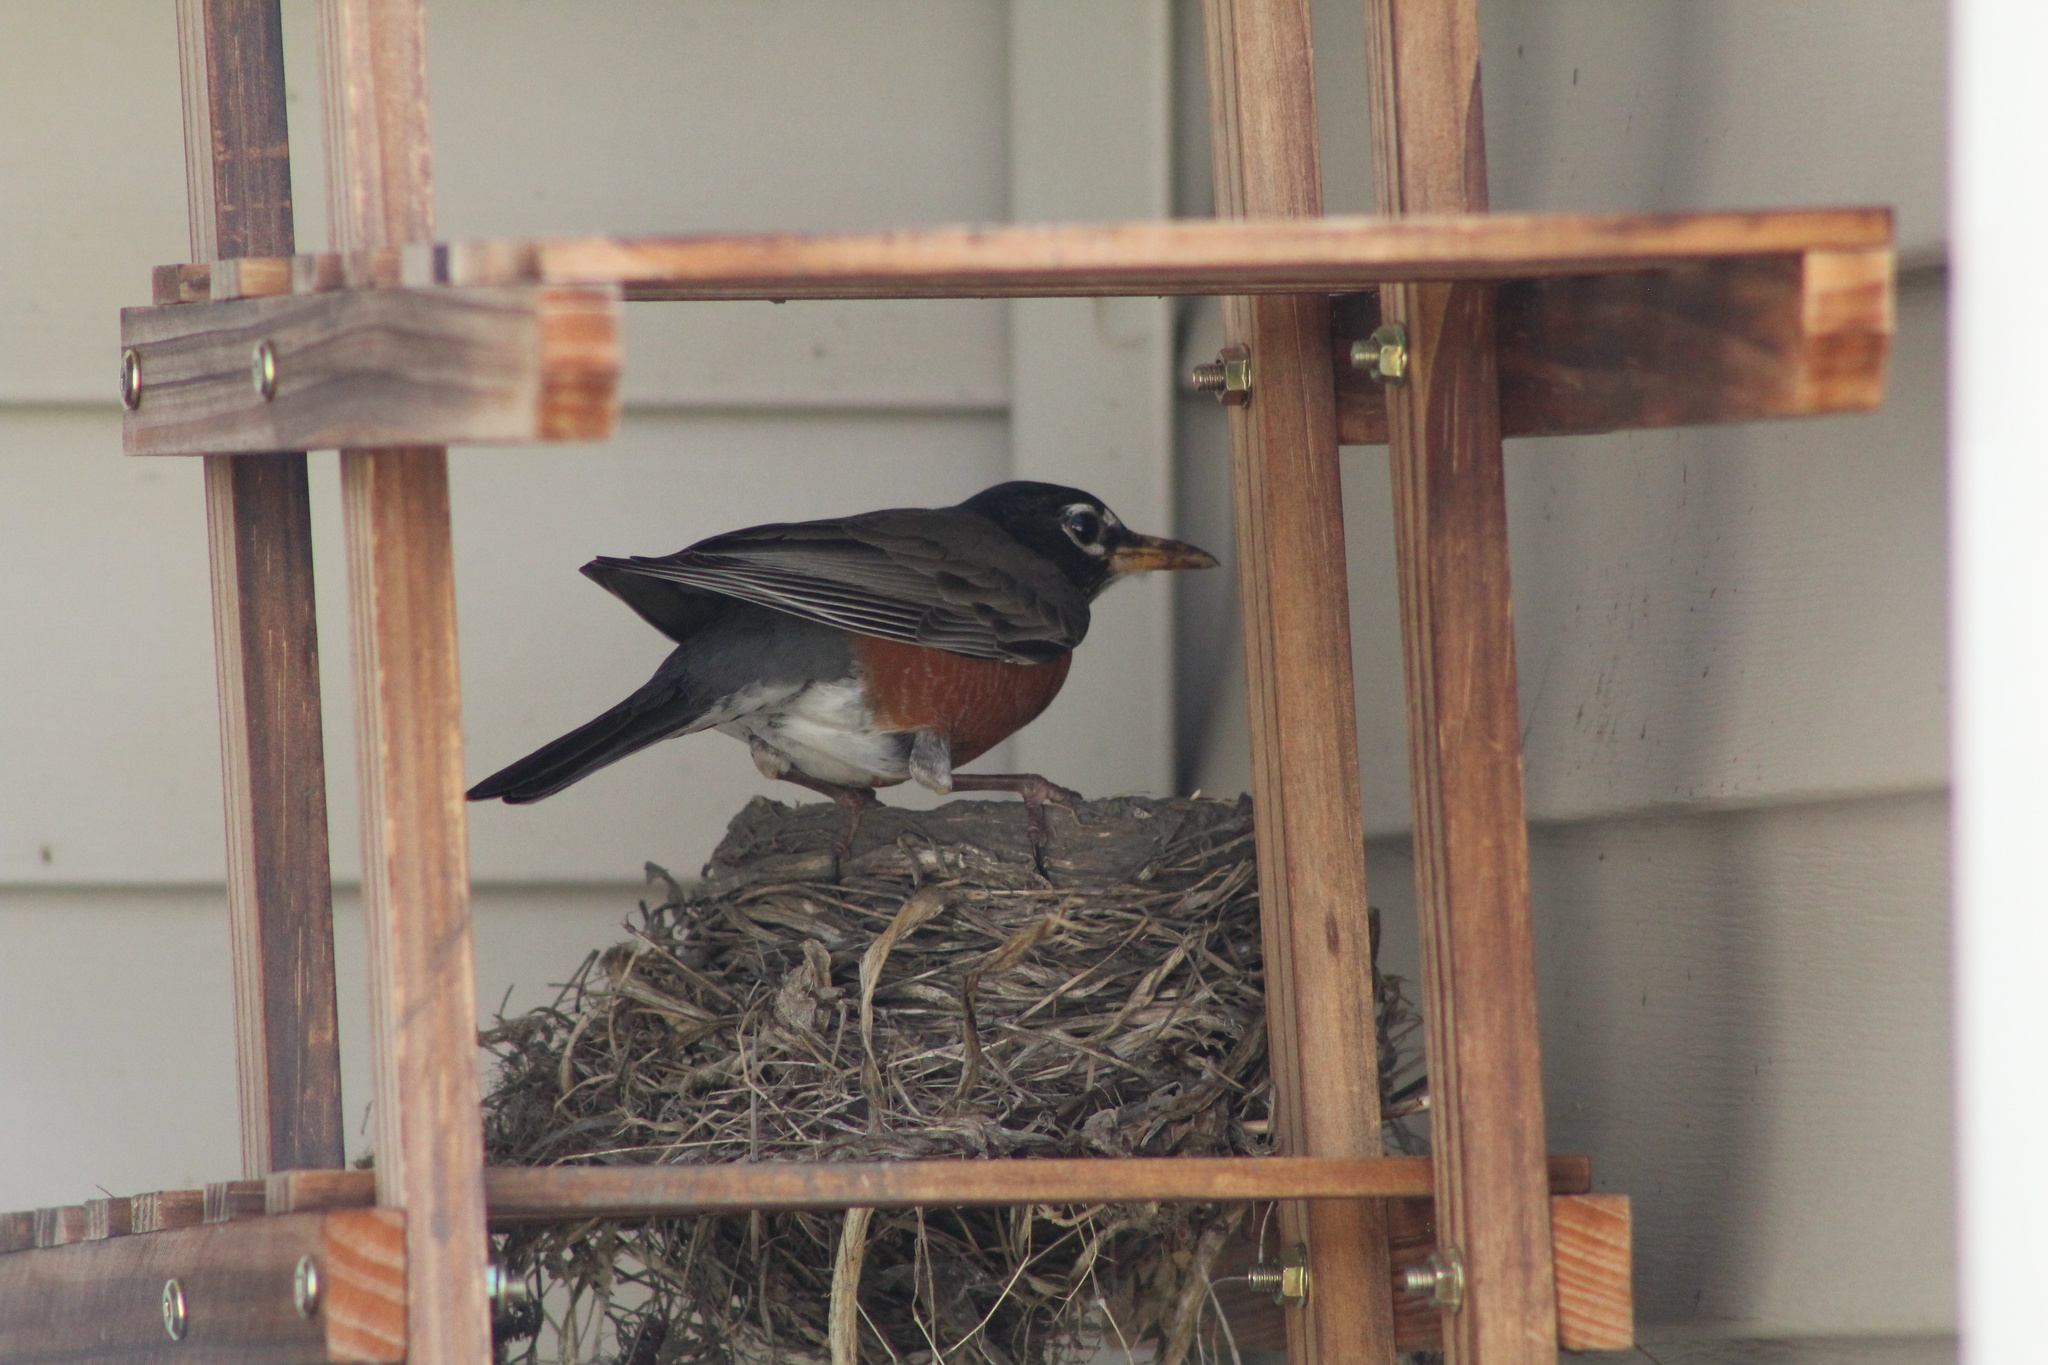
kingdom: Animalia
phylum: Chordata
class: Aves
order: Passeriformes
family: Turdidae
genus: Turdus
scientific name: Turdus migratorius
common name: American robin
